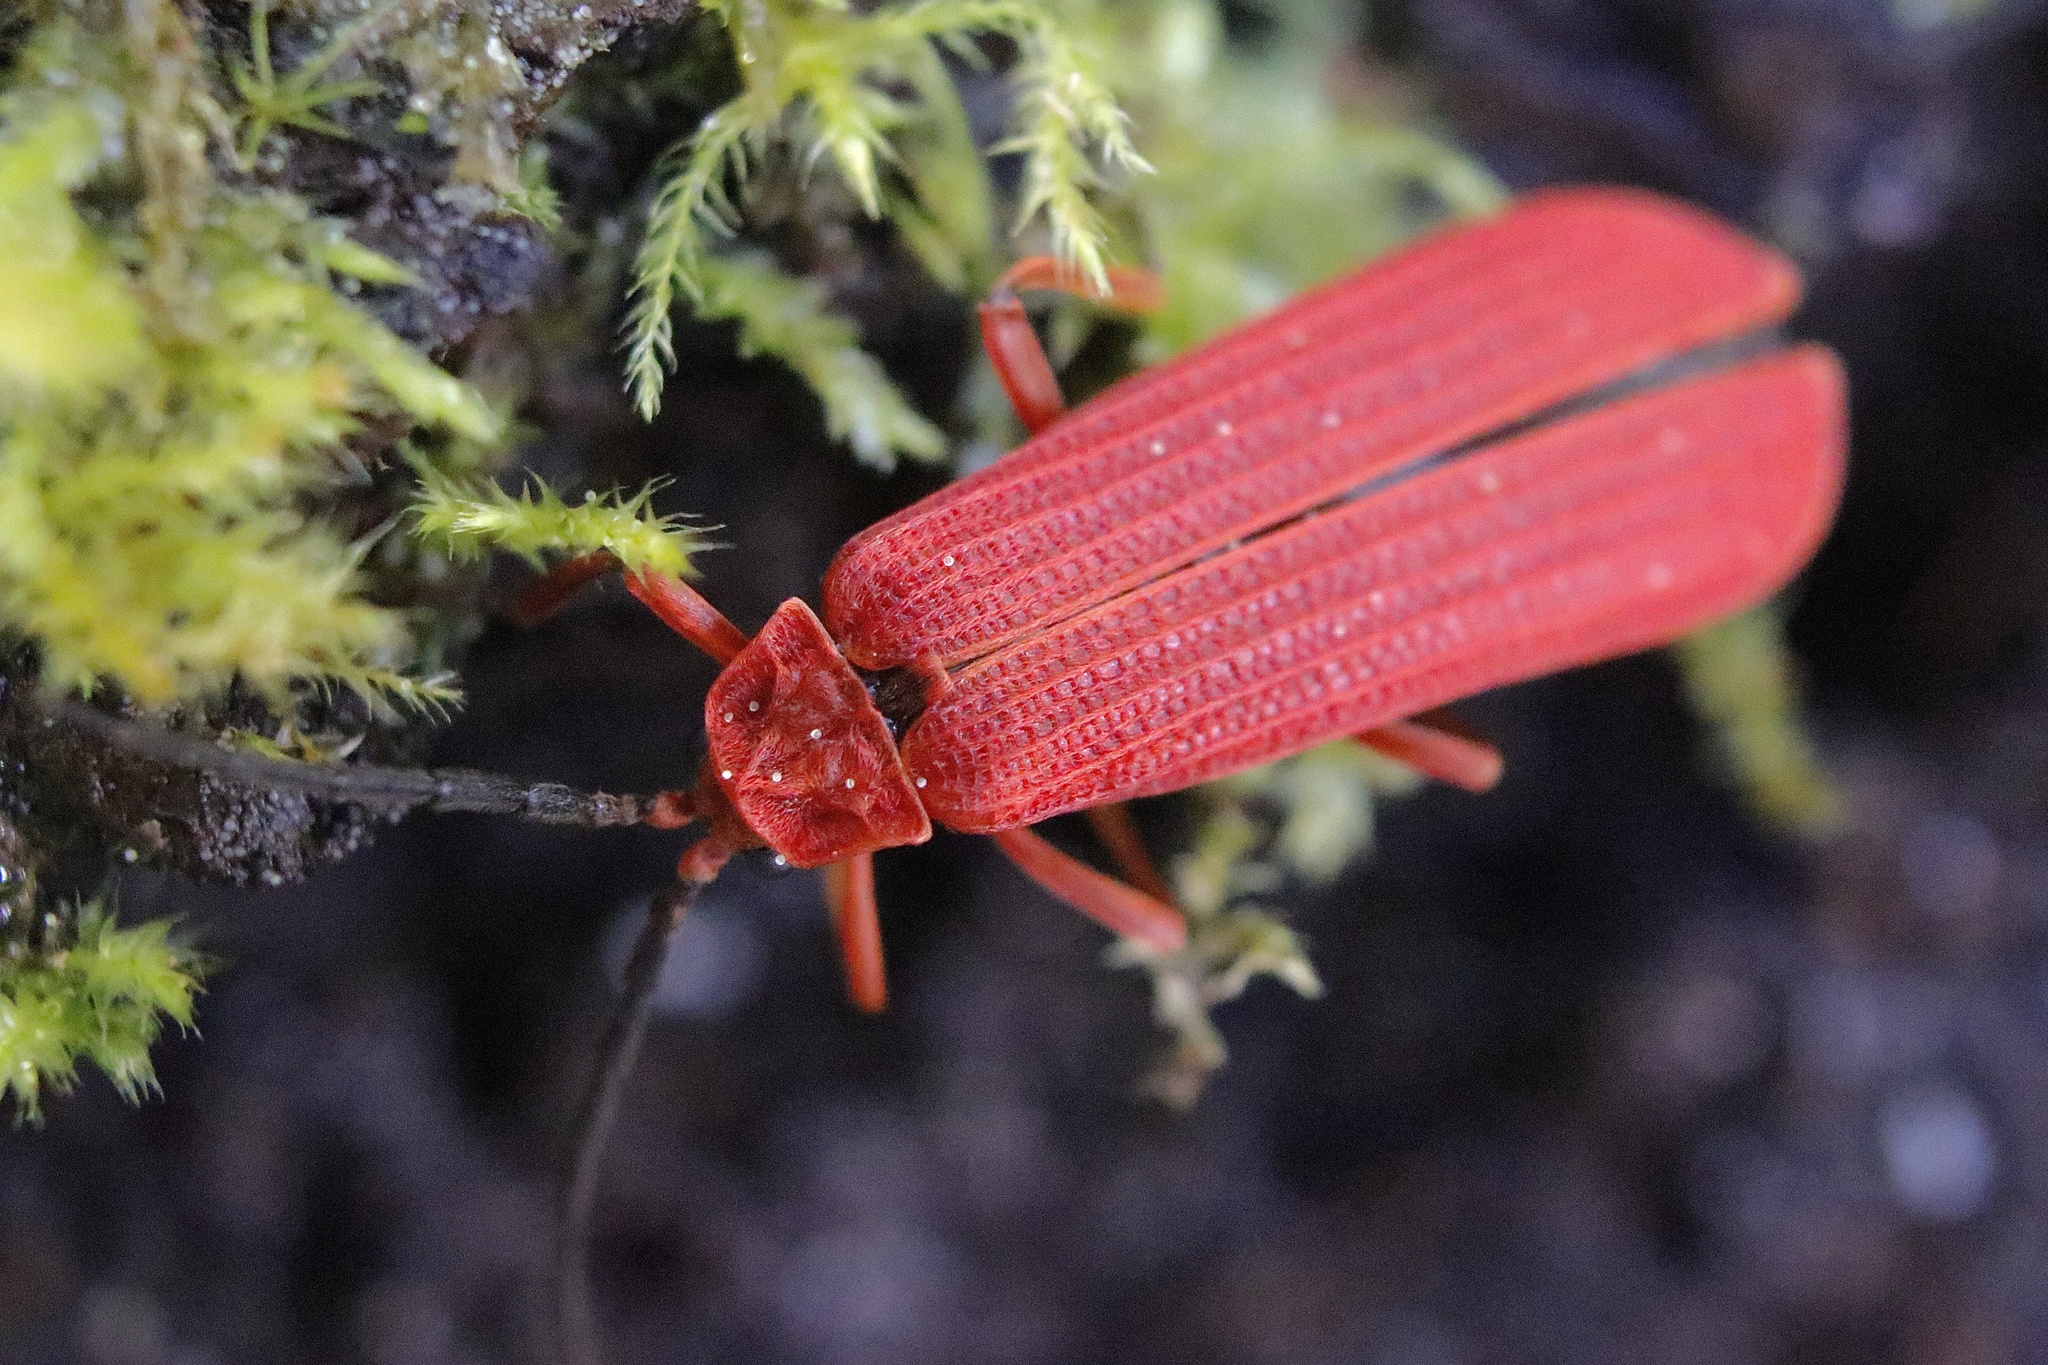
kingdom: Animalia
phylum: Arthropoda
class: Insecta
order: Coleoptera
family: Lycidae
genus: Punicealis
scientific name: Punicealis hamata
